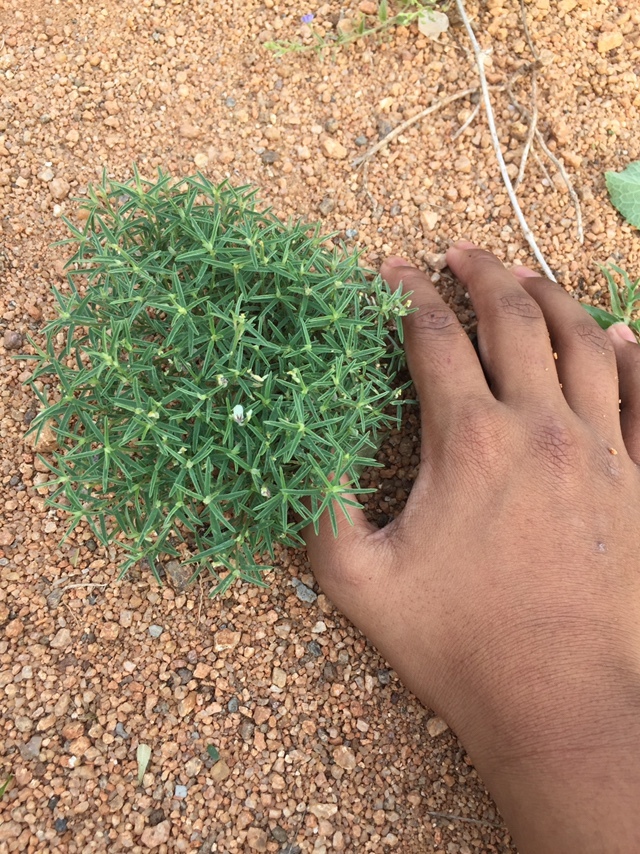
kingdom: Plantae
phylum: Tracheophyta
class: Magnoliopsida
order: Fabales
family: Fabaceae
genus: Crotalaria
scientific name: Crotalaria pusilla
